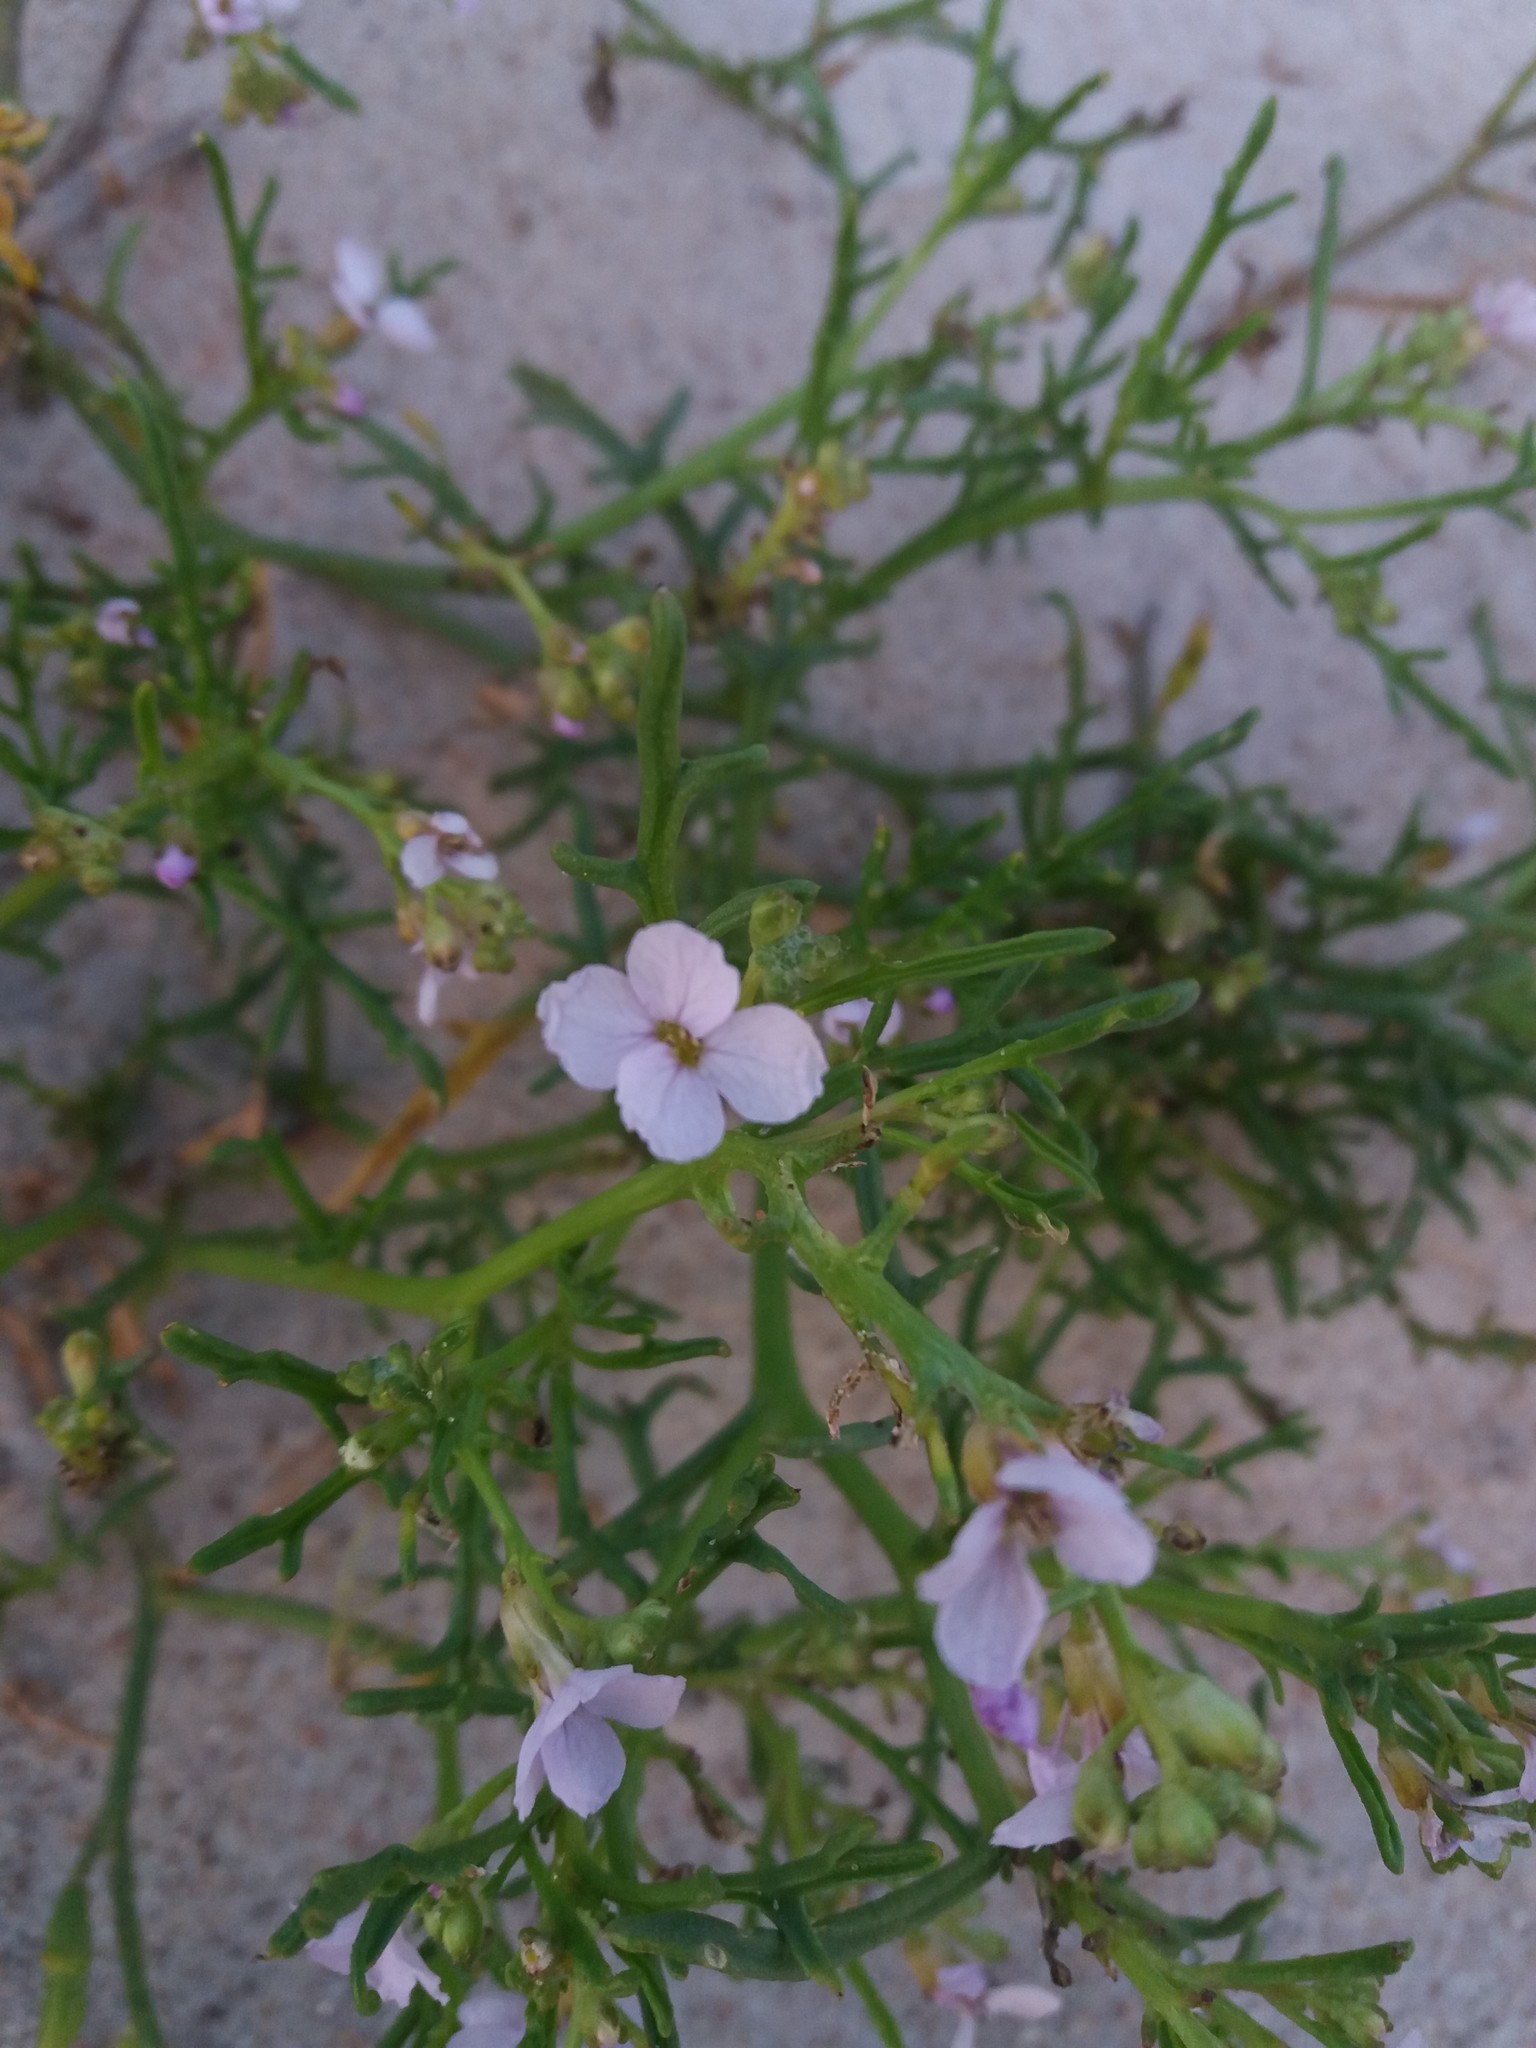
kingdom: Plantae
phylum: Tracheophyta
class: Magnoliopsida
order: Brassicales
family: Brassicaceae
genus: Cakile
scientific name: Cakile maritima
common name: Sea rocket
